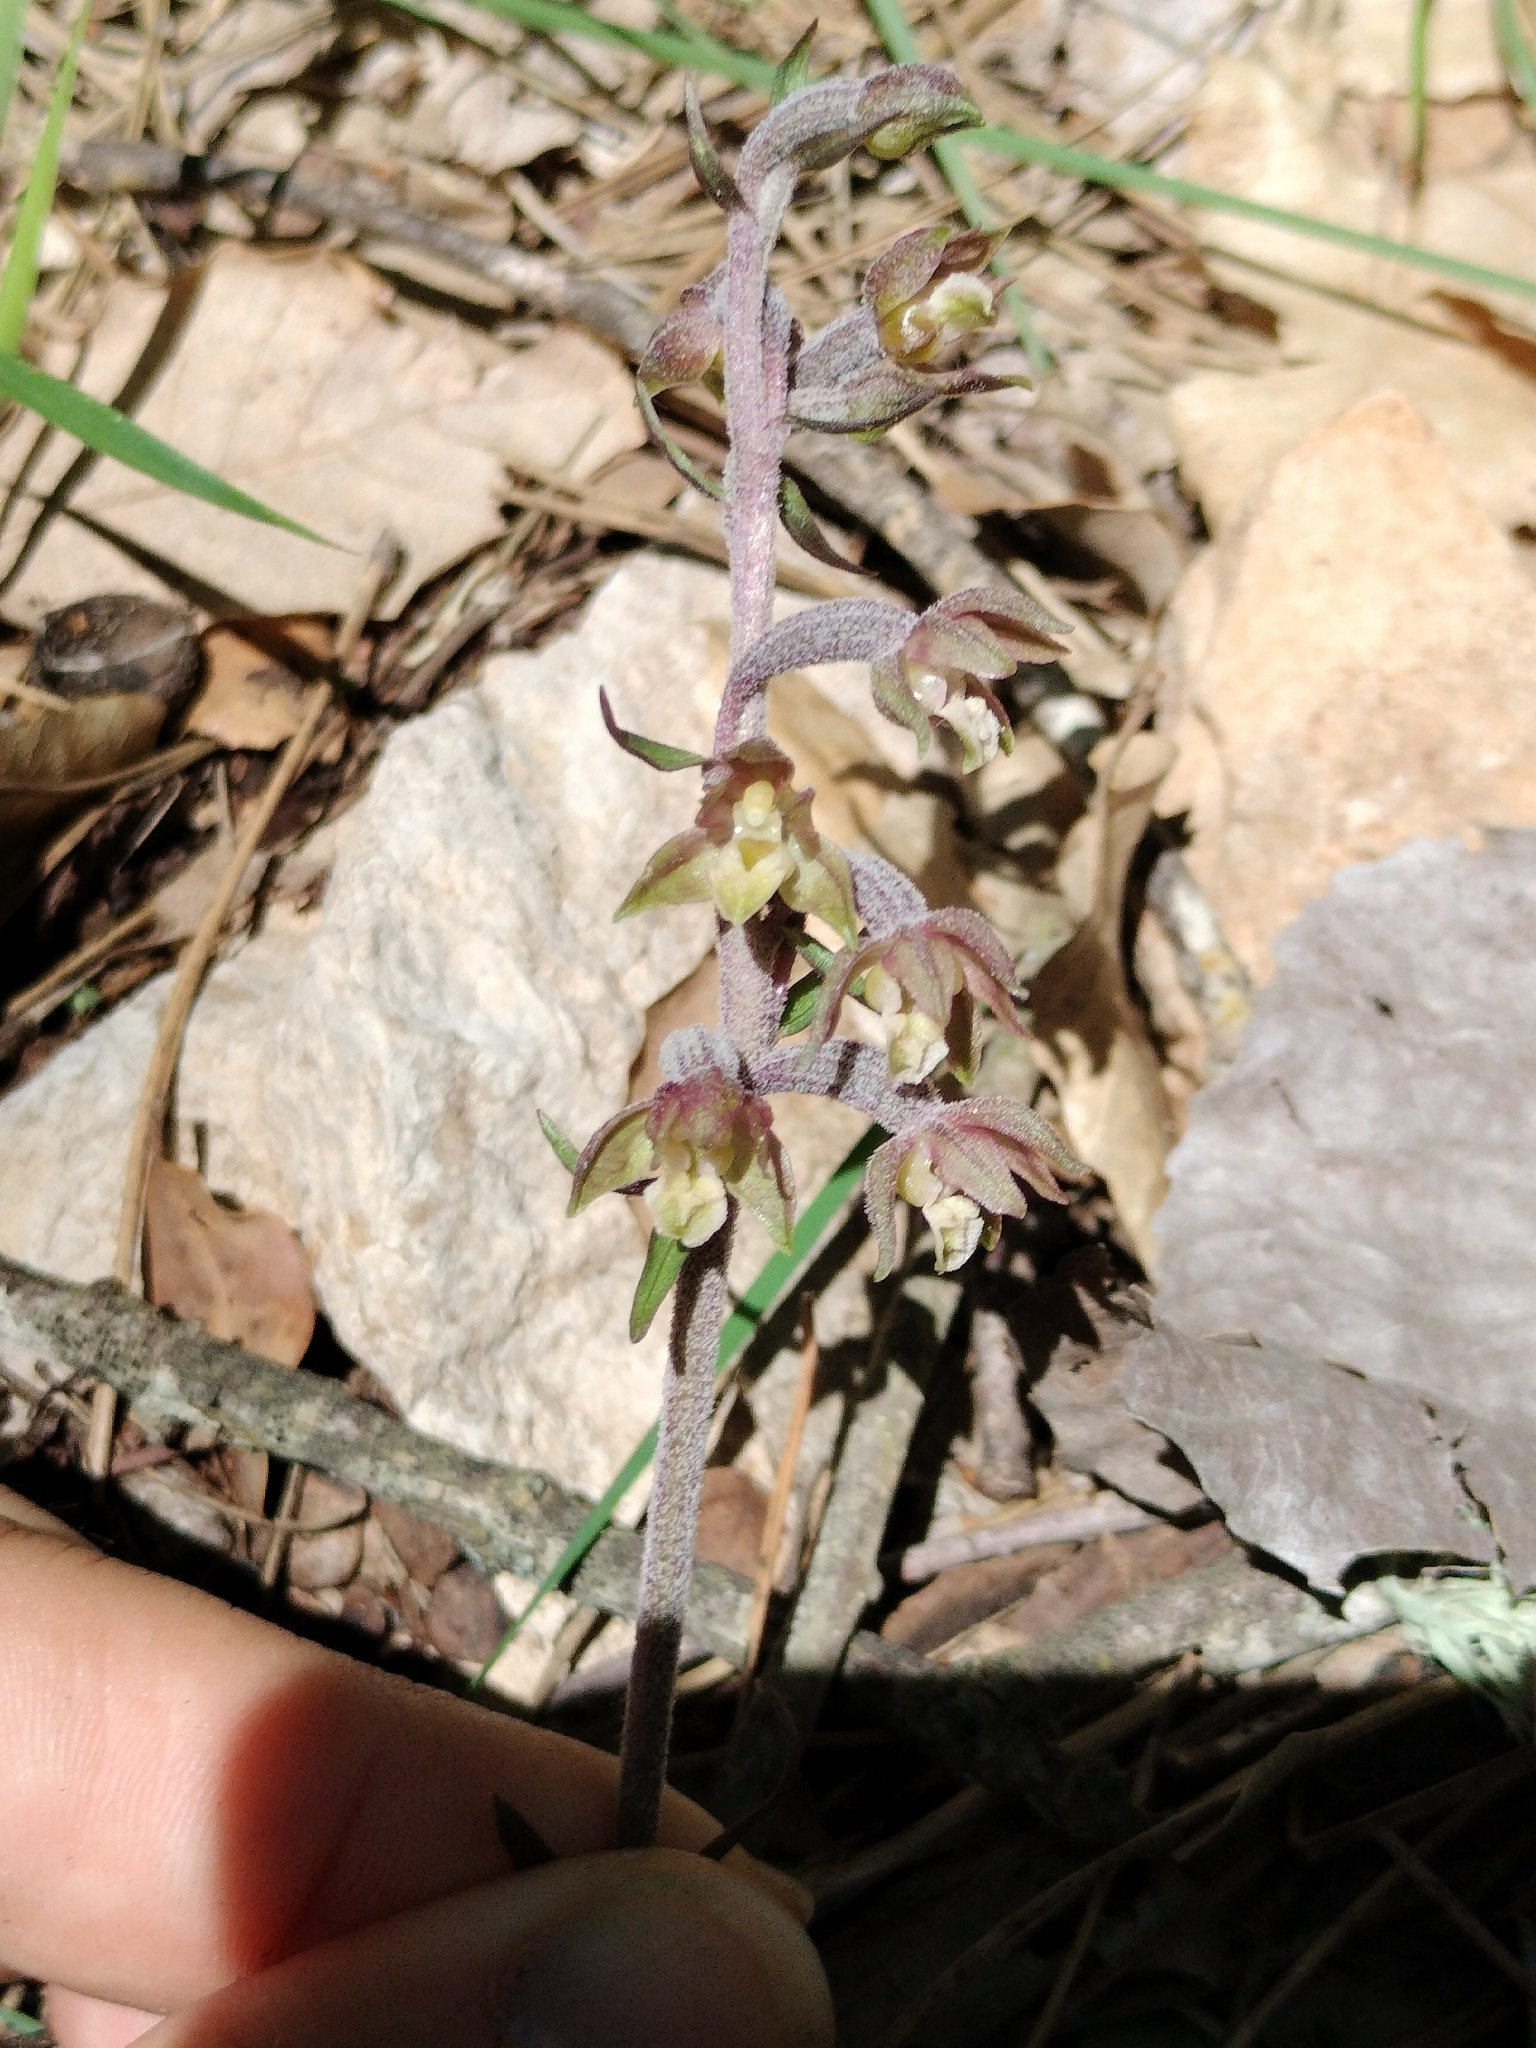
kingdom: Plantae
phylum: Tracheophyta
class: Liliopsida
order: Asparagales
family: Orchidaceae
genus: Epipactis
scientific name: Epipactis microphylla
